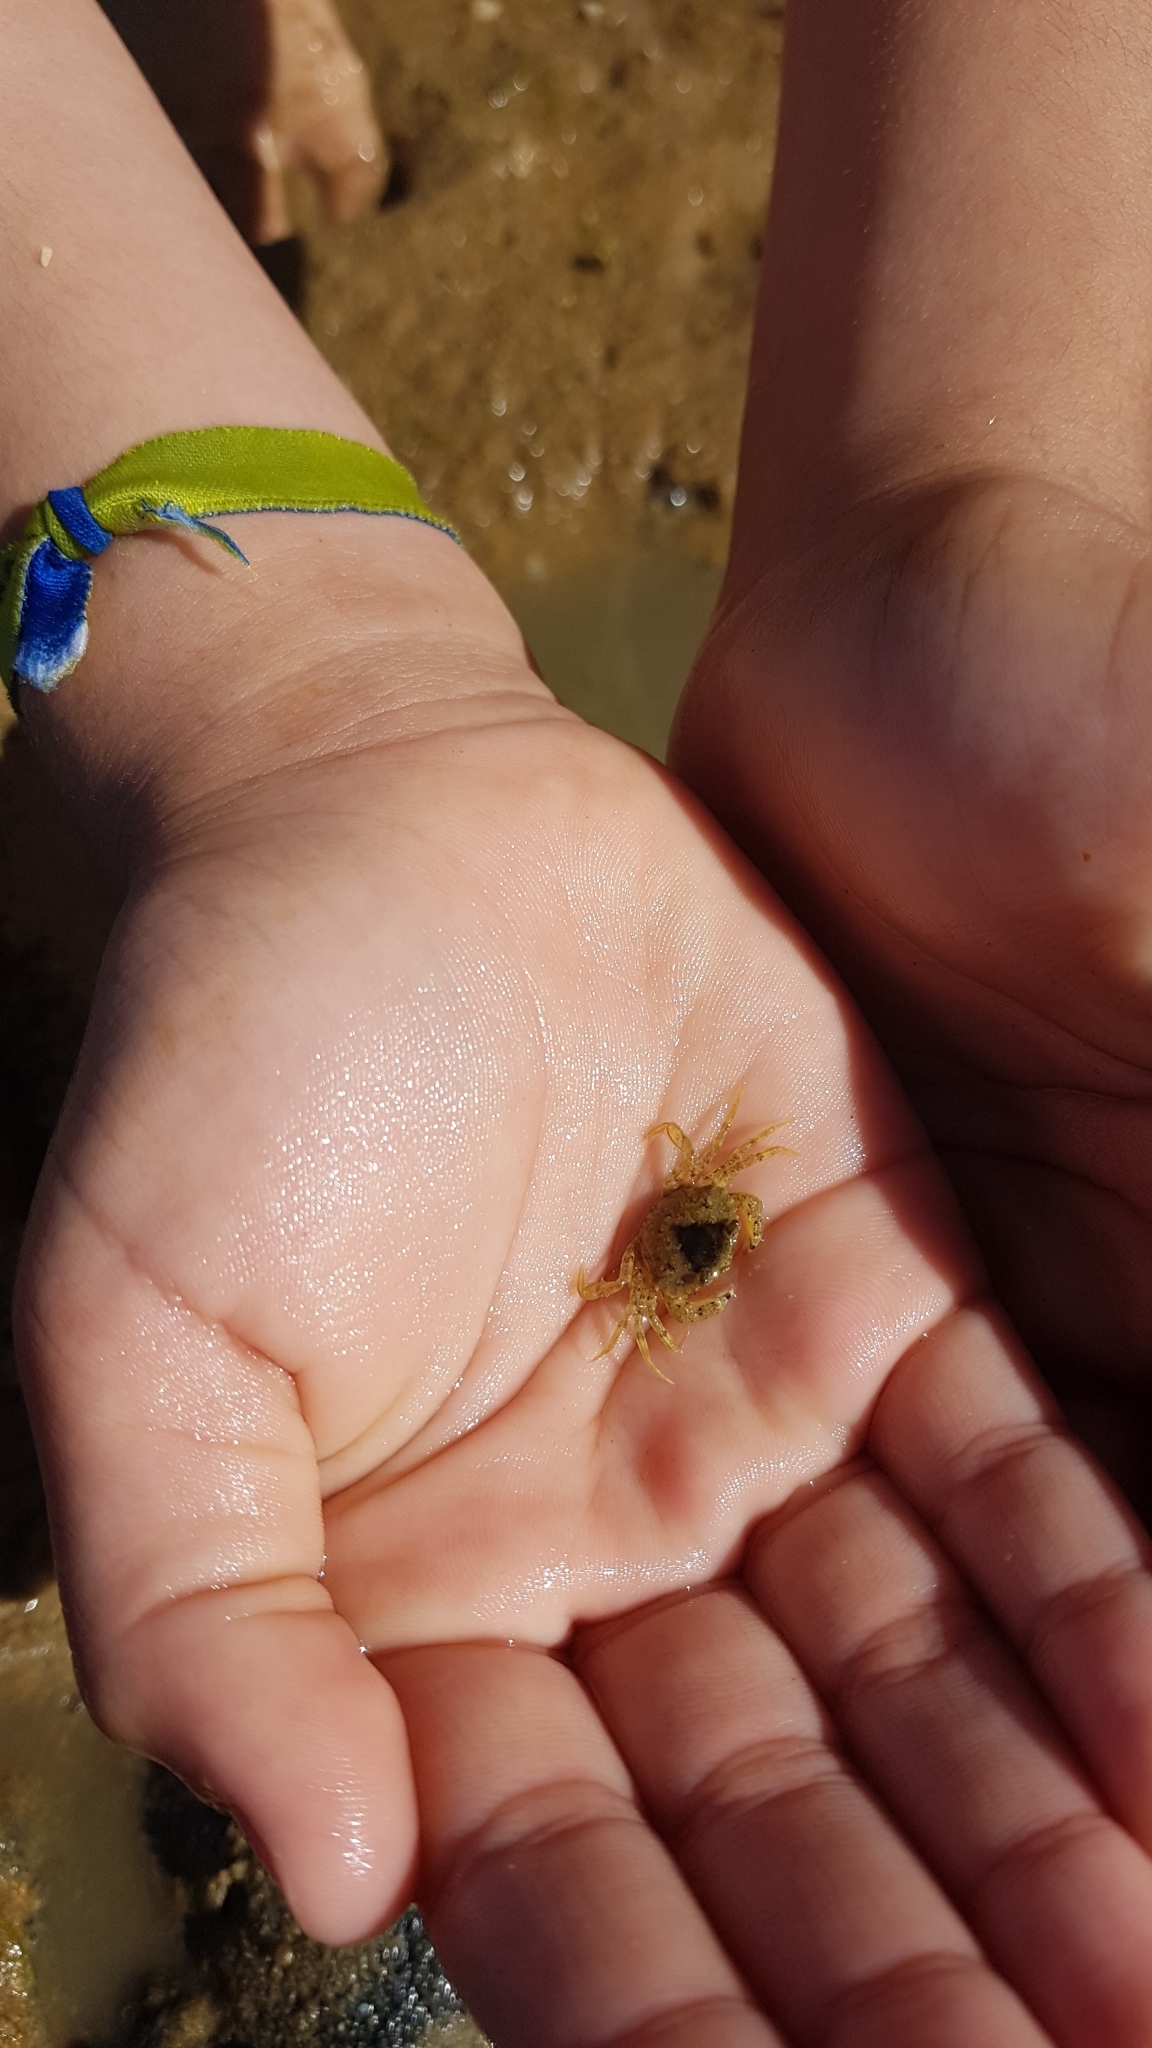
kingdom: Animalia
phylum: Arthropoda
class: Malacostraca
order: Decapoda
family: Carcinidae
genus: Carcinus
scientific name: Carcinus maenas
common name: European green crab
